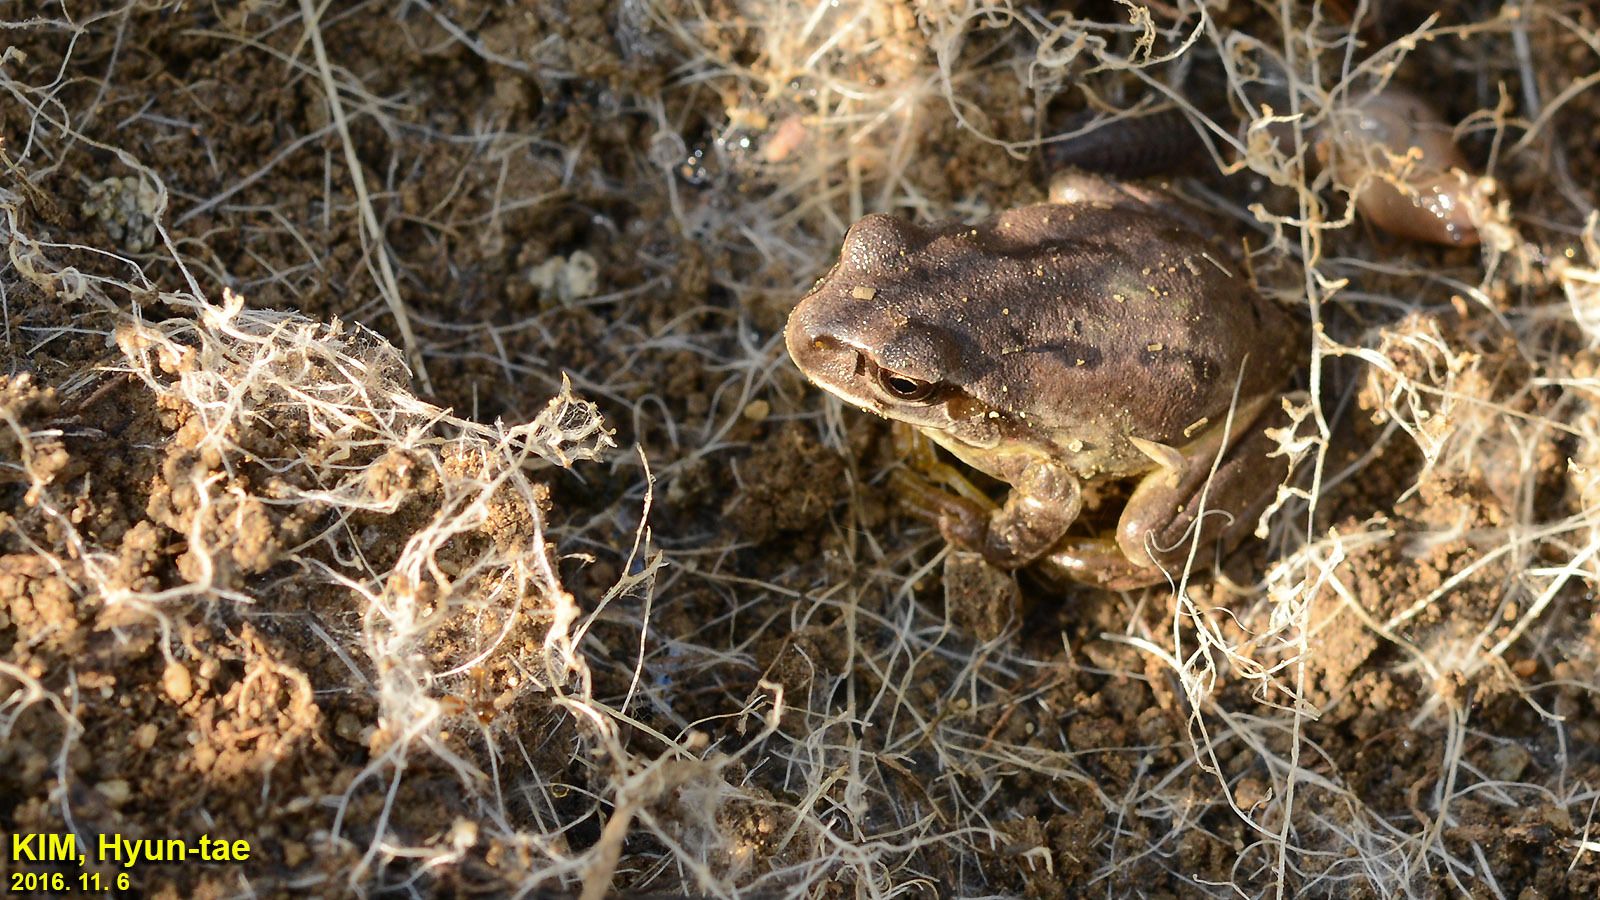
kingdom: Animalia
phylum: Chordata
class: Amphibia
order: Anura
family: Hylidae
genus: Dryophytes
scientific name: Dryophytes immaculatus
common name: North china treefrog
